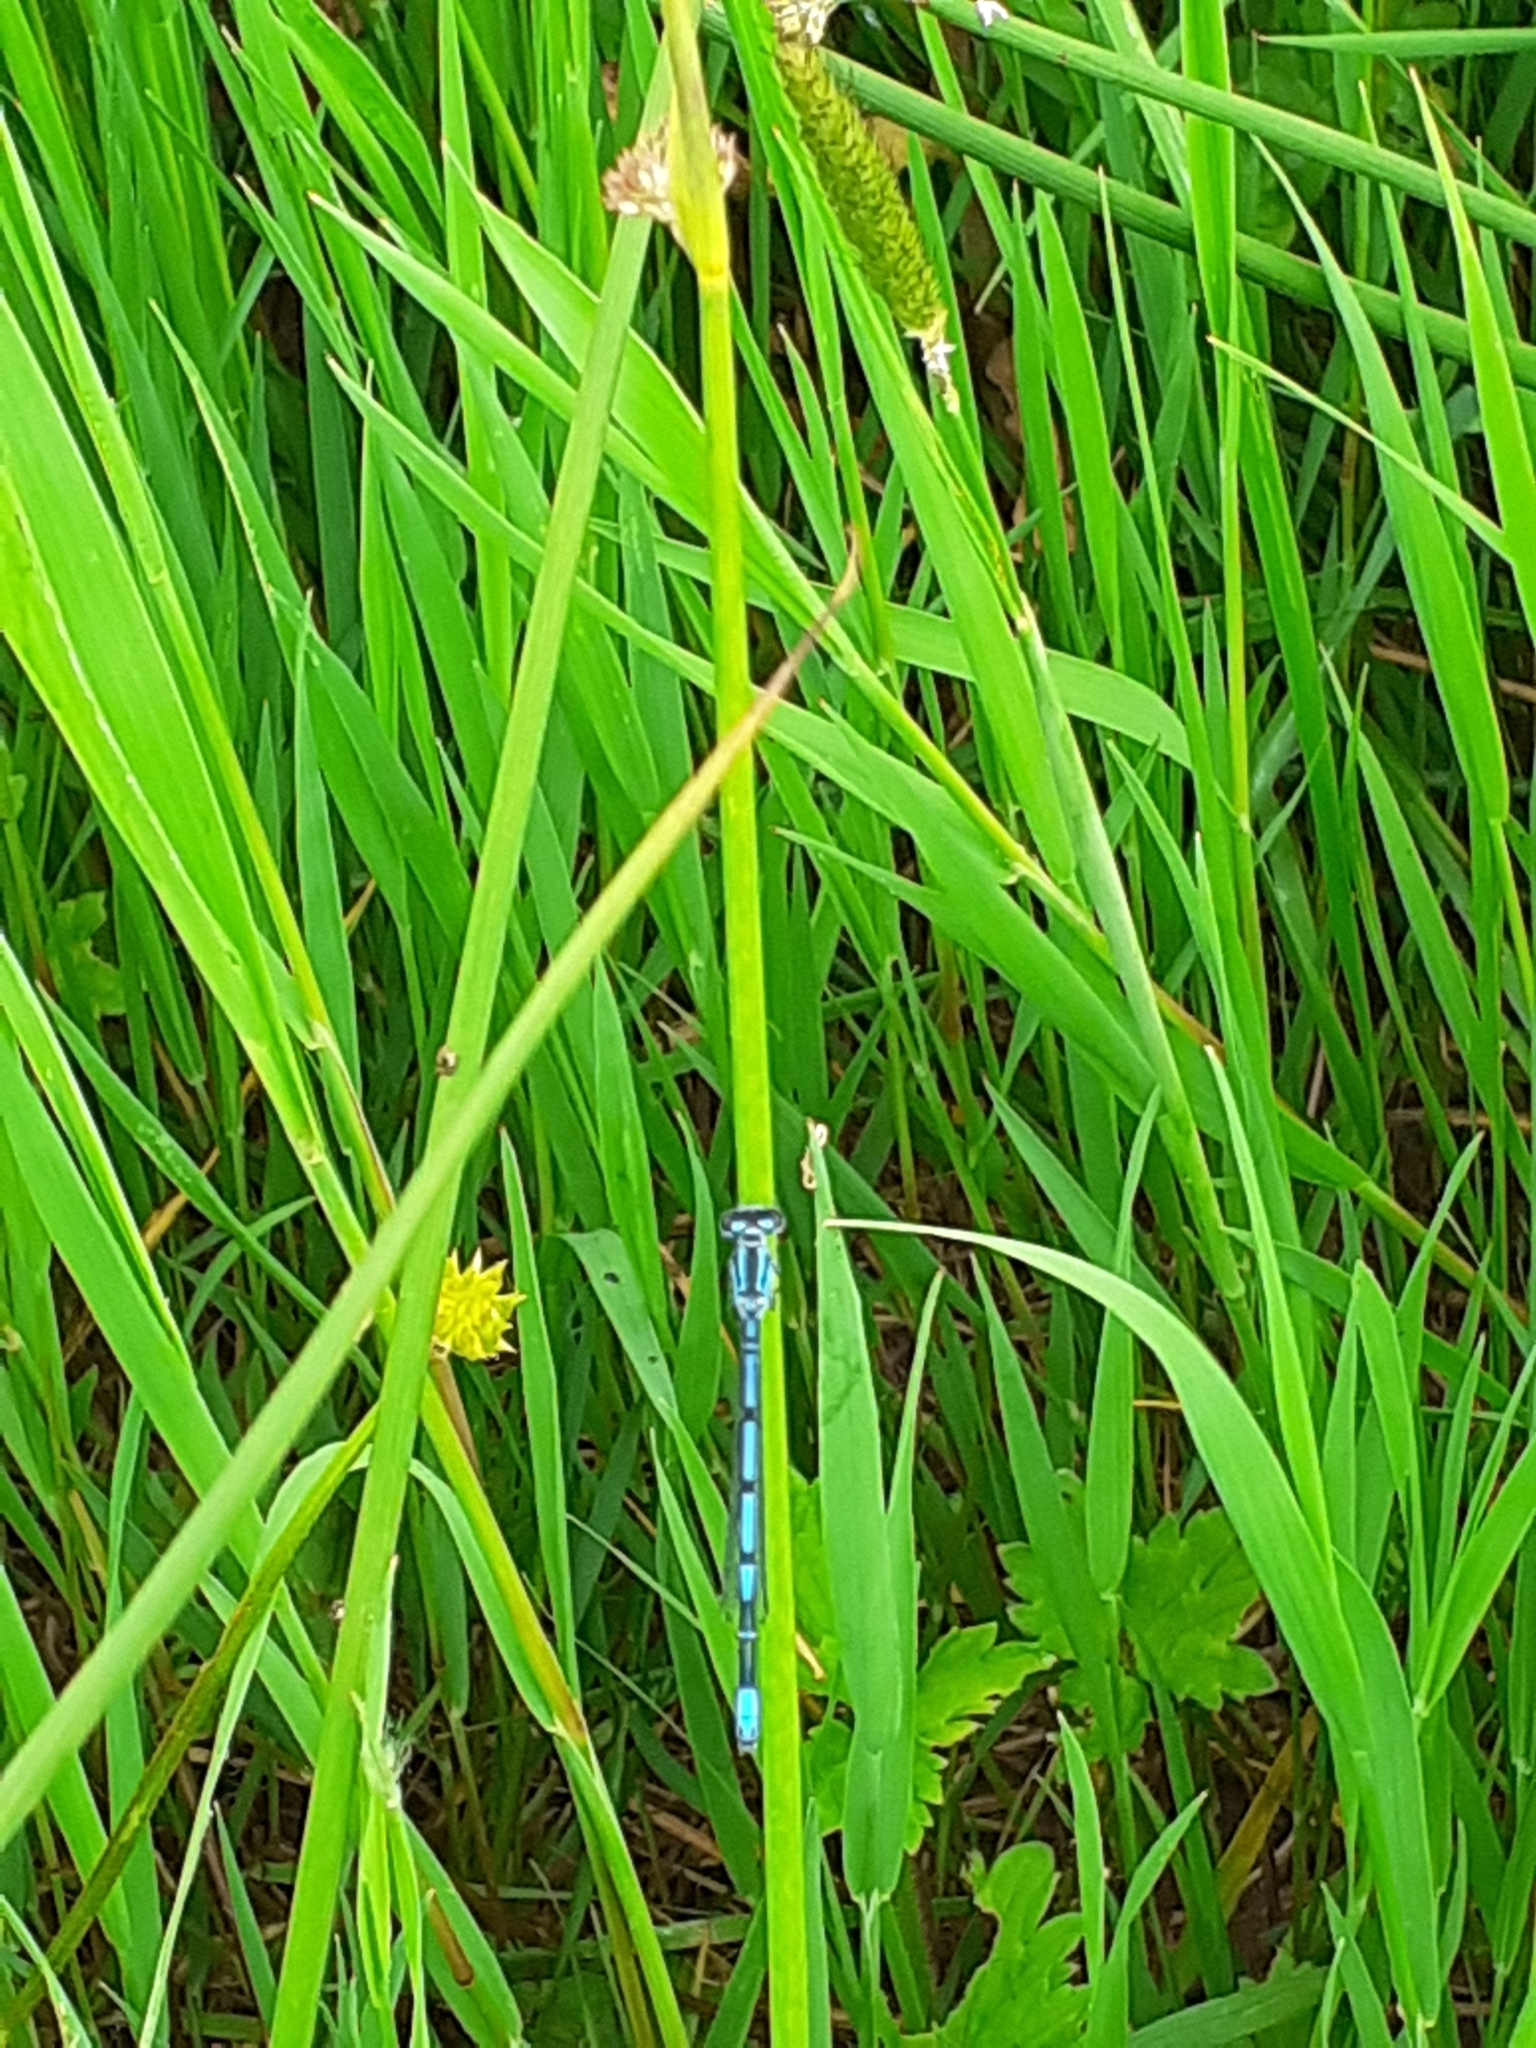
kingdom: Animalia
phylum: Arthropoda
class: Insecta
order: Odonata
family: Coenagrionidae
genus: Coenagrion
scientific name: Coenagrion puella
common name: Azure damselfly
